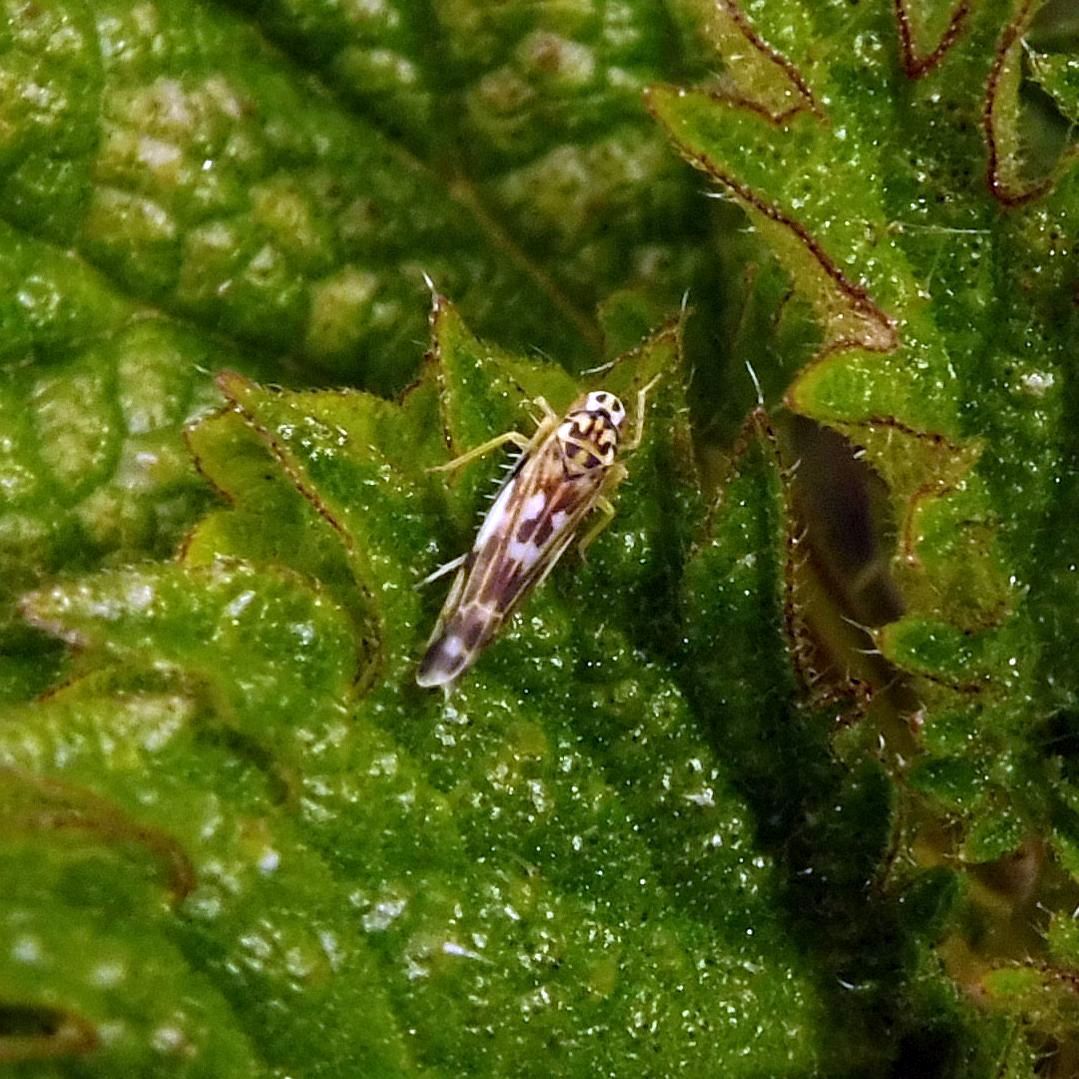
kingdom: Animalia
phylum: Arthropoda
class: Insecta
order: Hemiptera
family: Cicadellidae
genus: Eupteryx
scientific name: Eupteryx urticae
